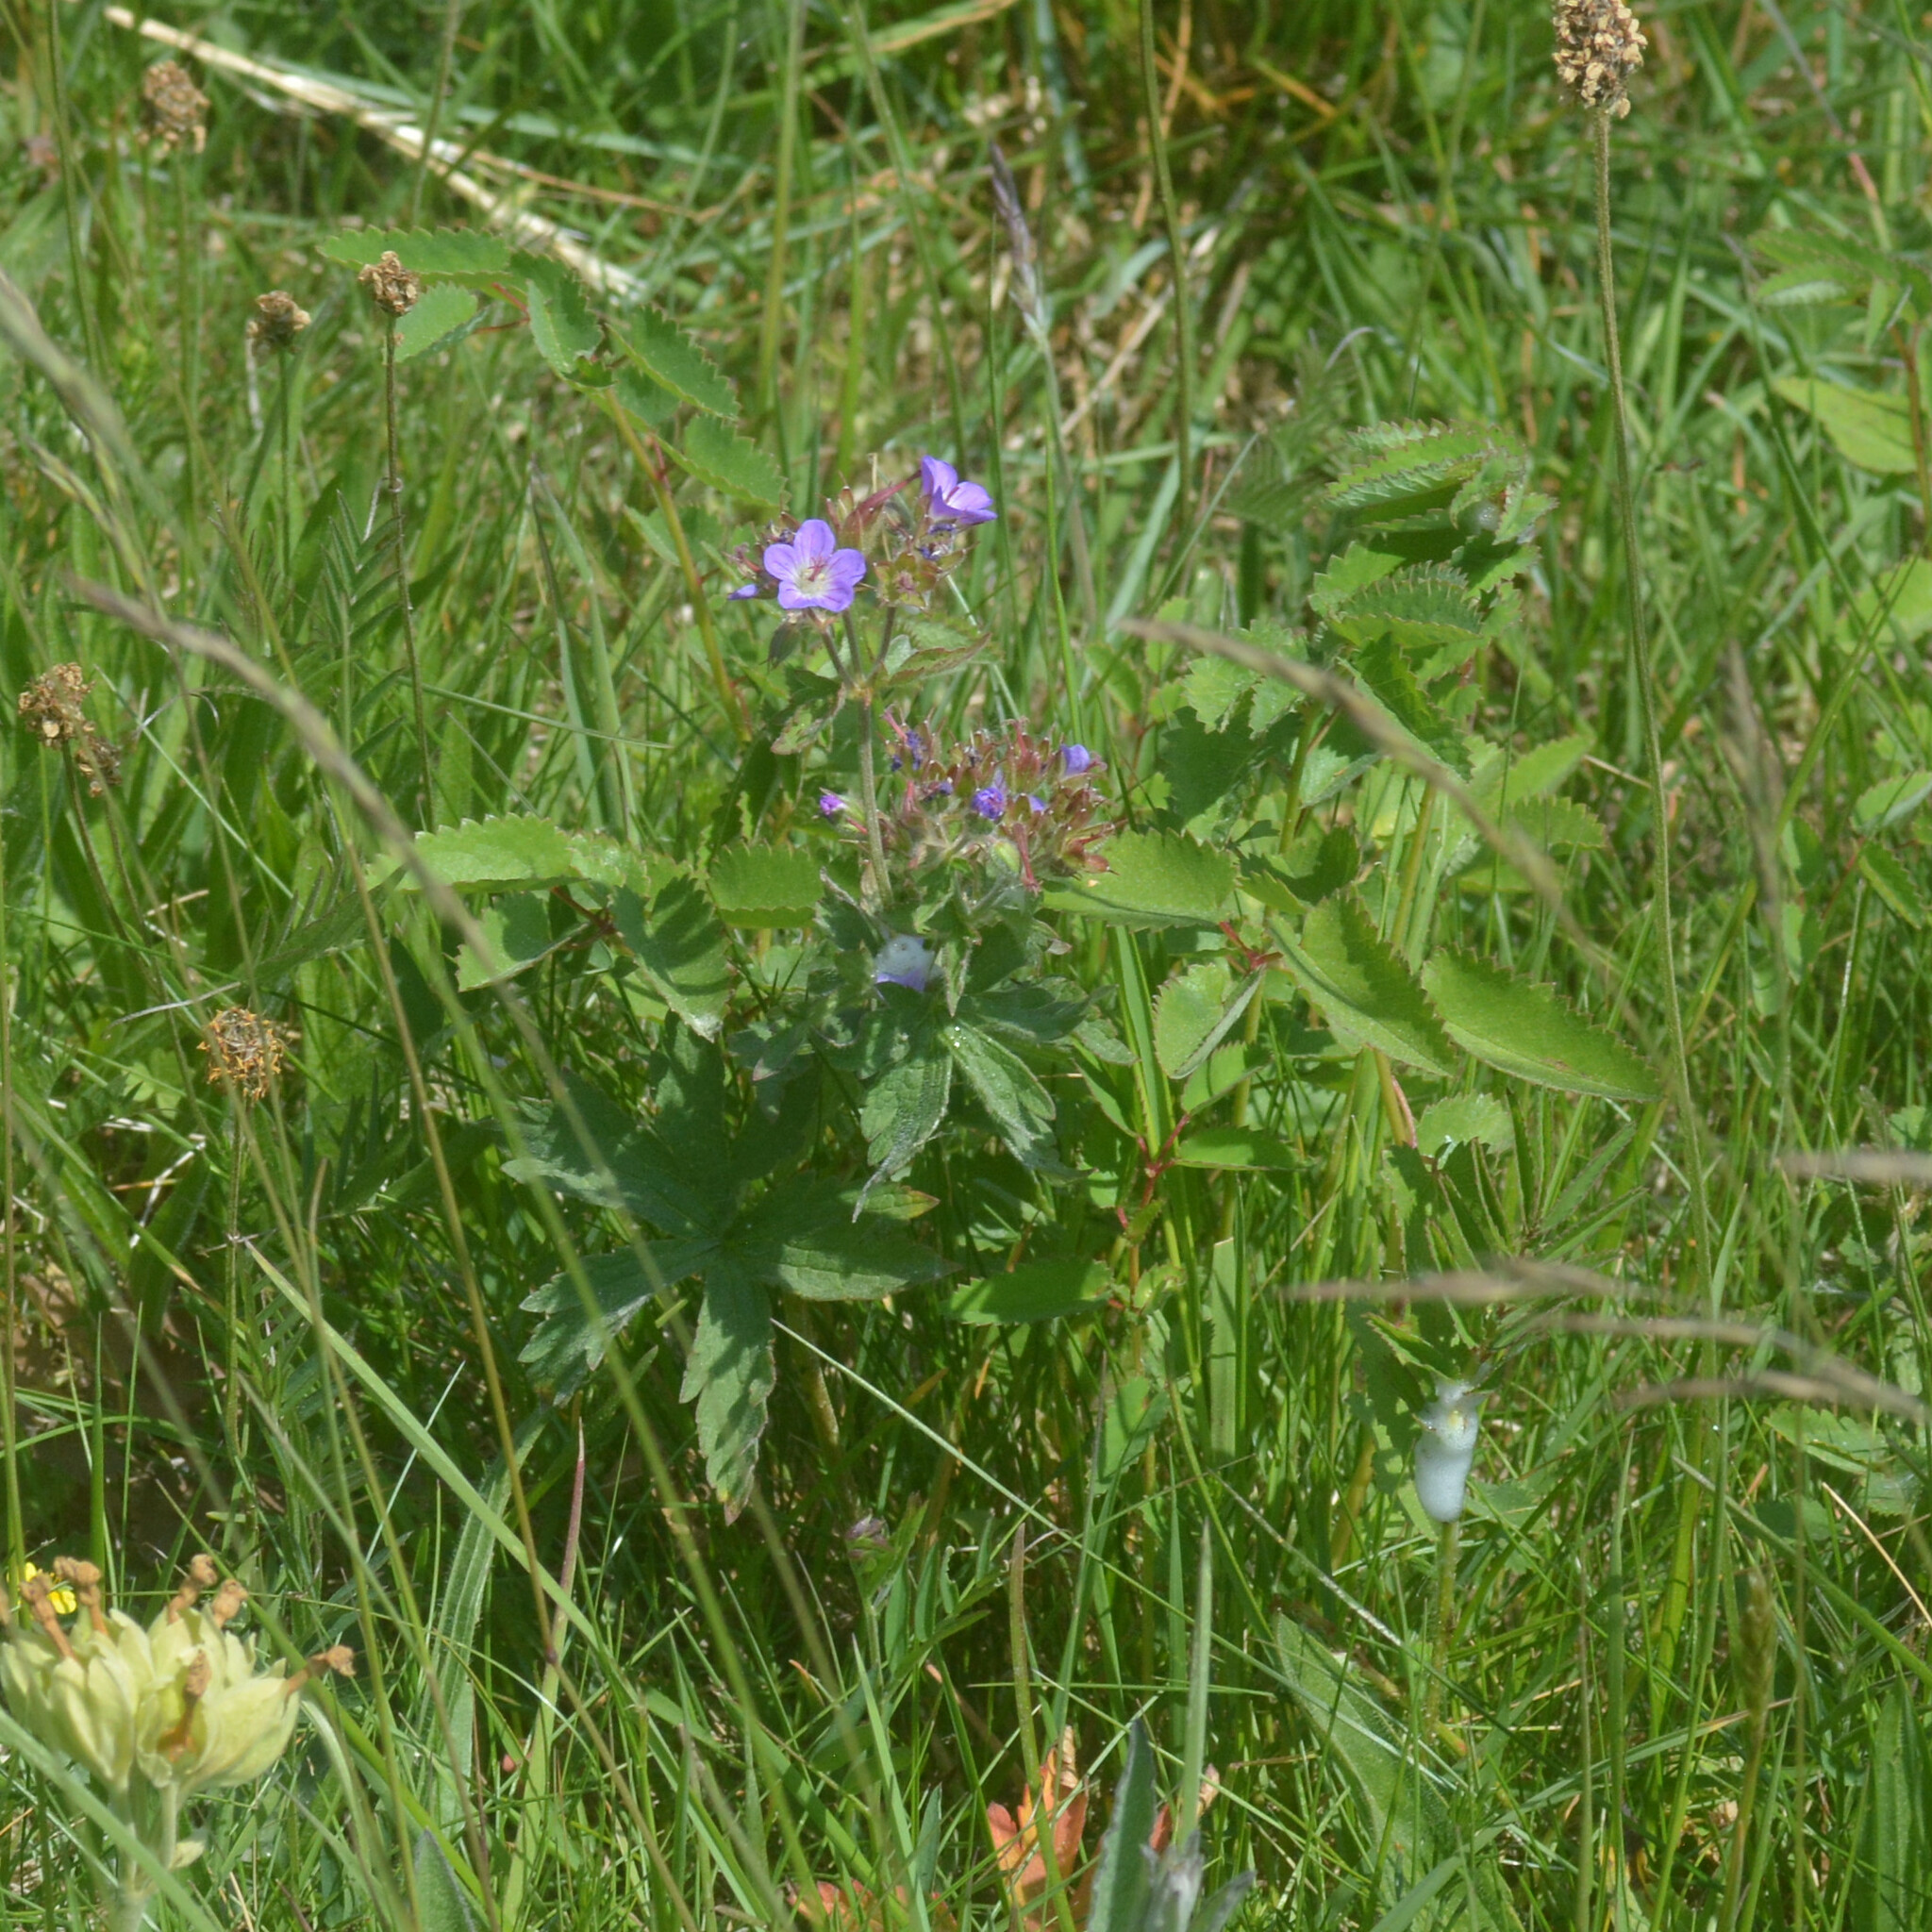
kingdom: Plantae
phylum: Tracheophyta
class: Magnoliopsida
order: Geraniales
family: Geraniaceae
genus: Geranium
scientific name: Geranium sylvaticum
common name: Wood crane's-bill
